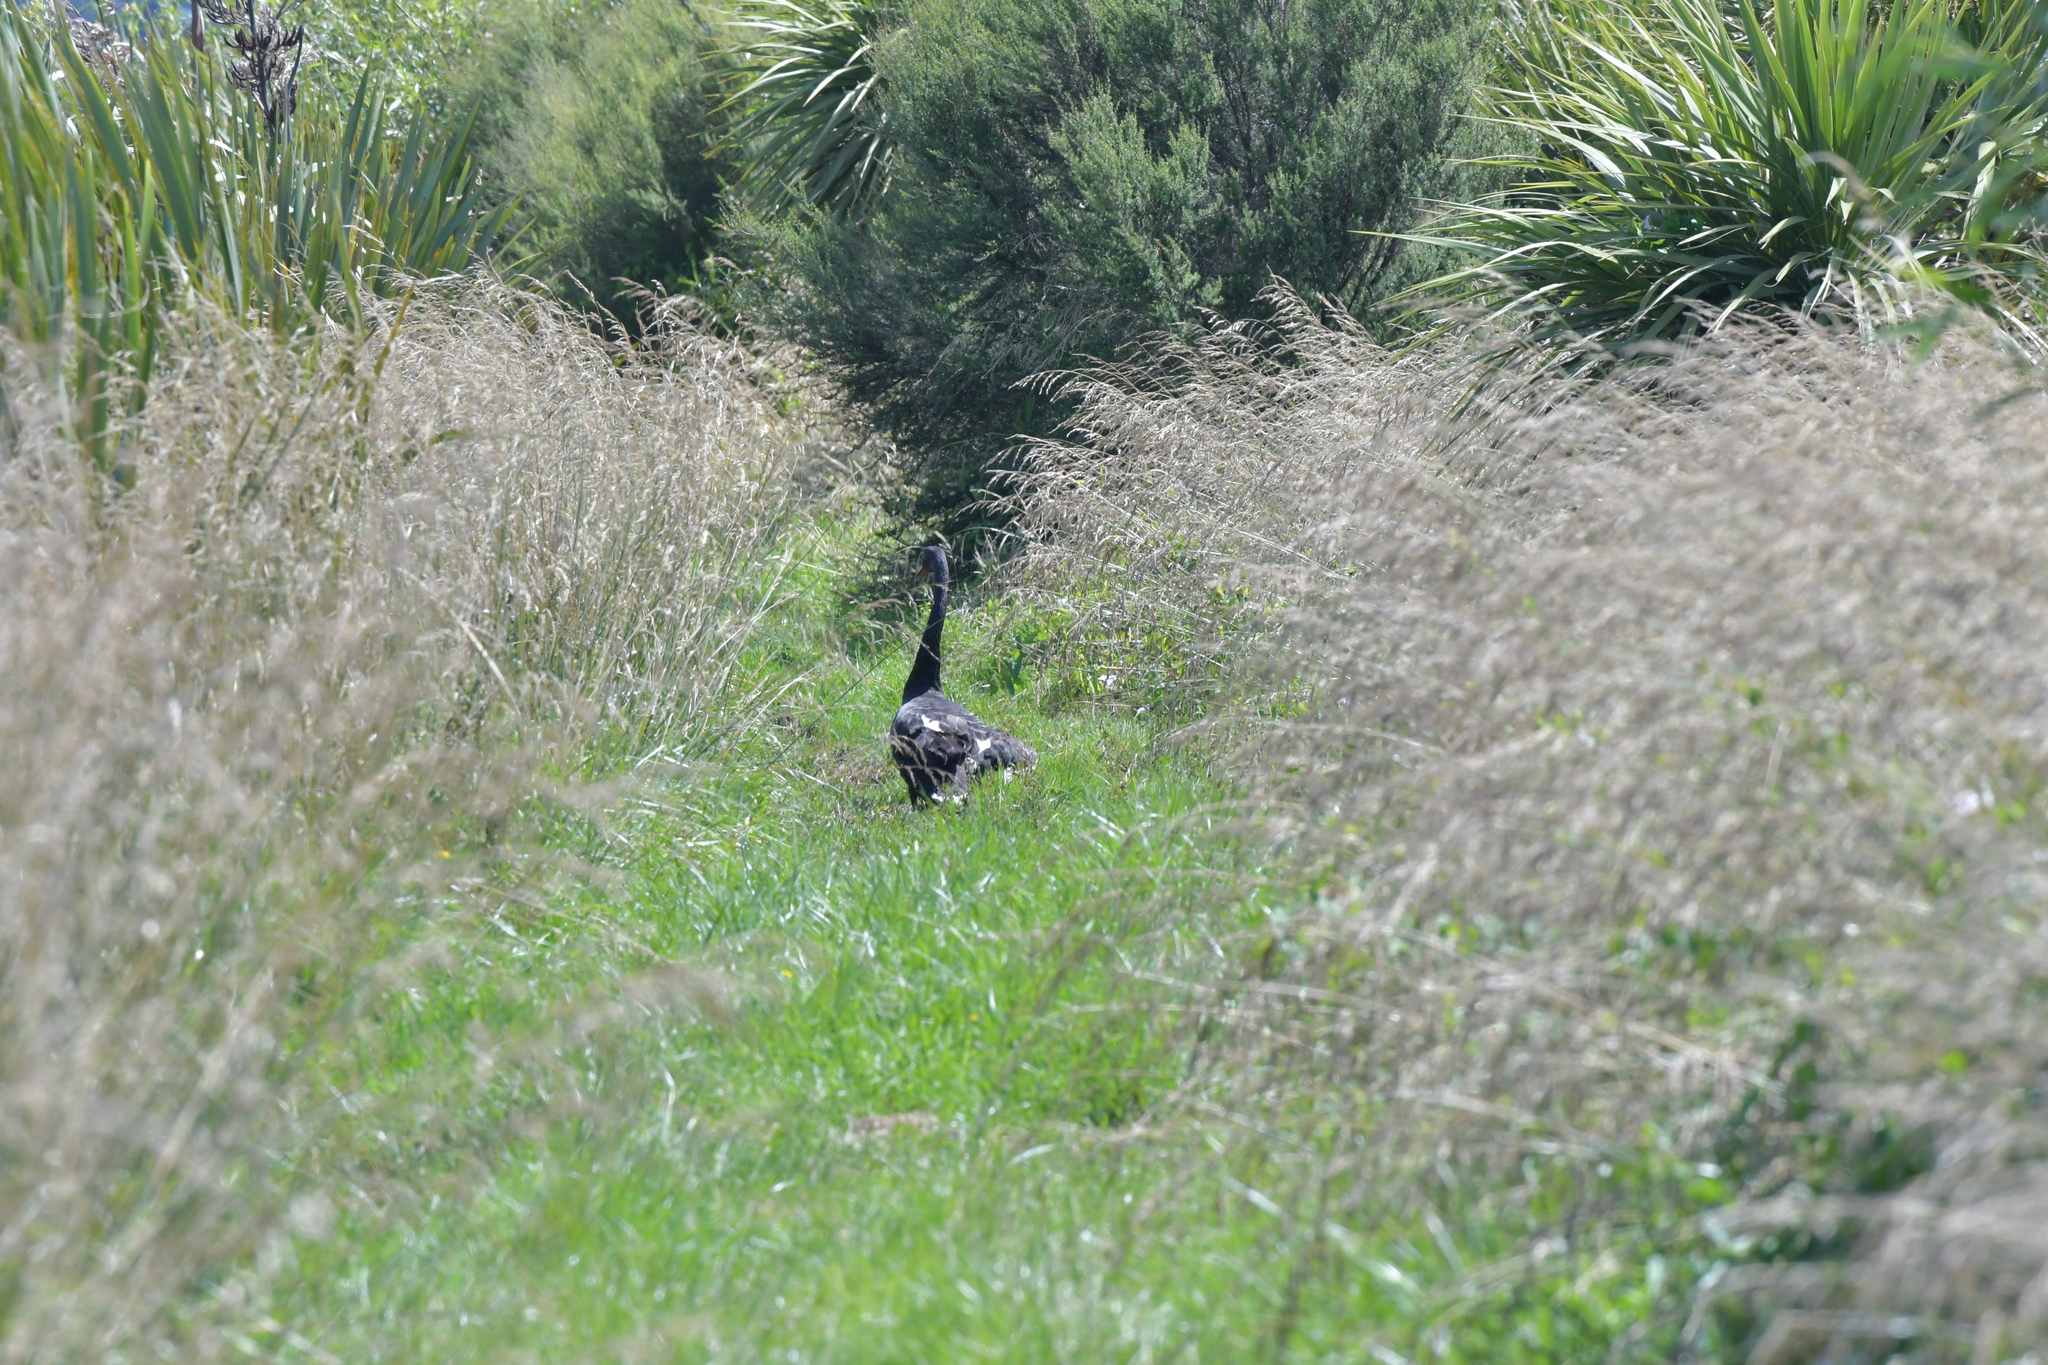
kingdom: Animalia
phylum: Chordata
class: Aves
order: Anseriformes
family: Anatidae
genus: Cygnus
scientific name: Cygnus atratus
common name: Black swan
